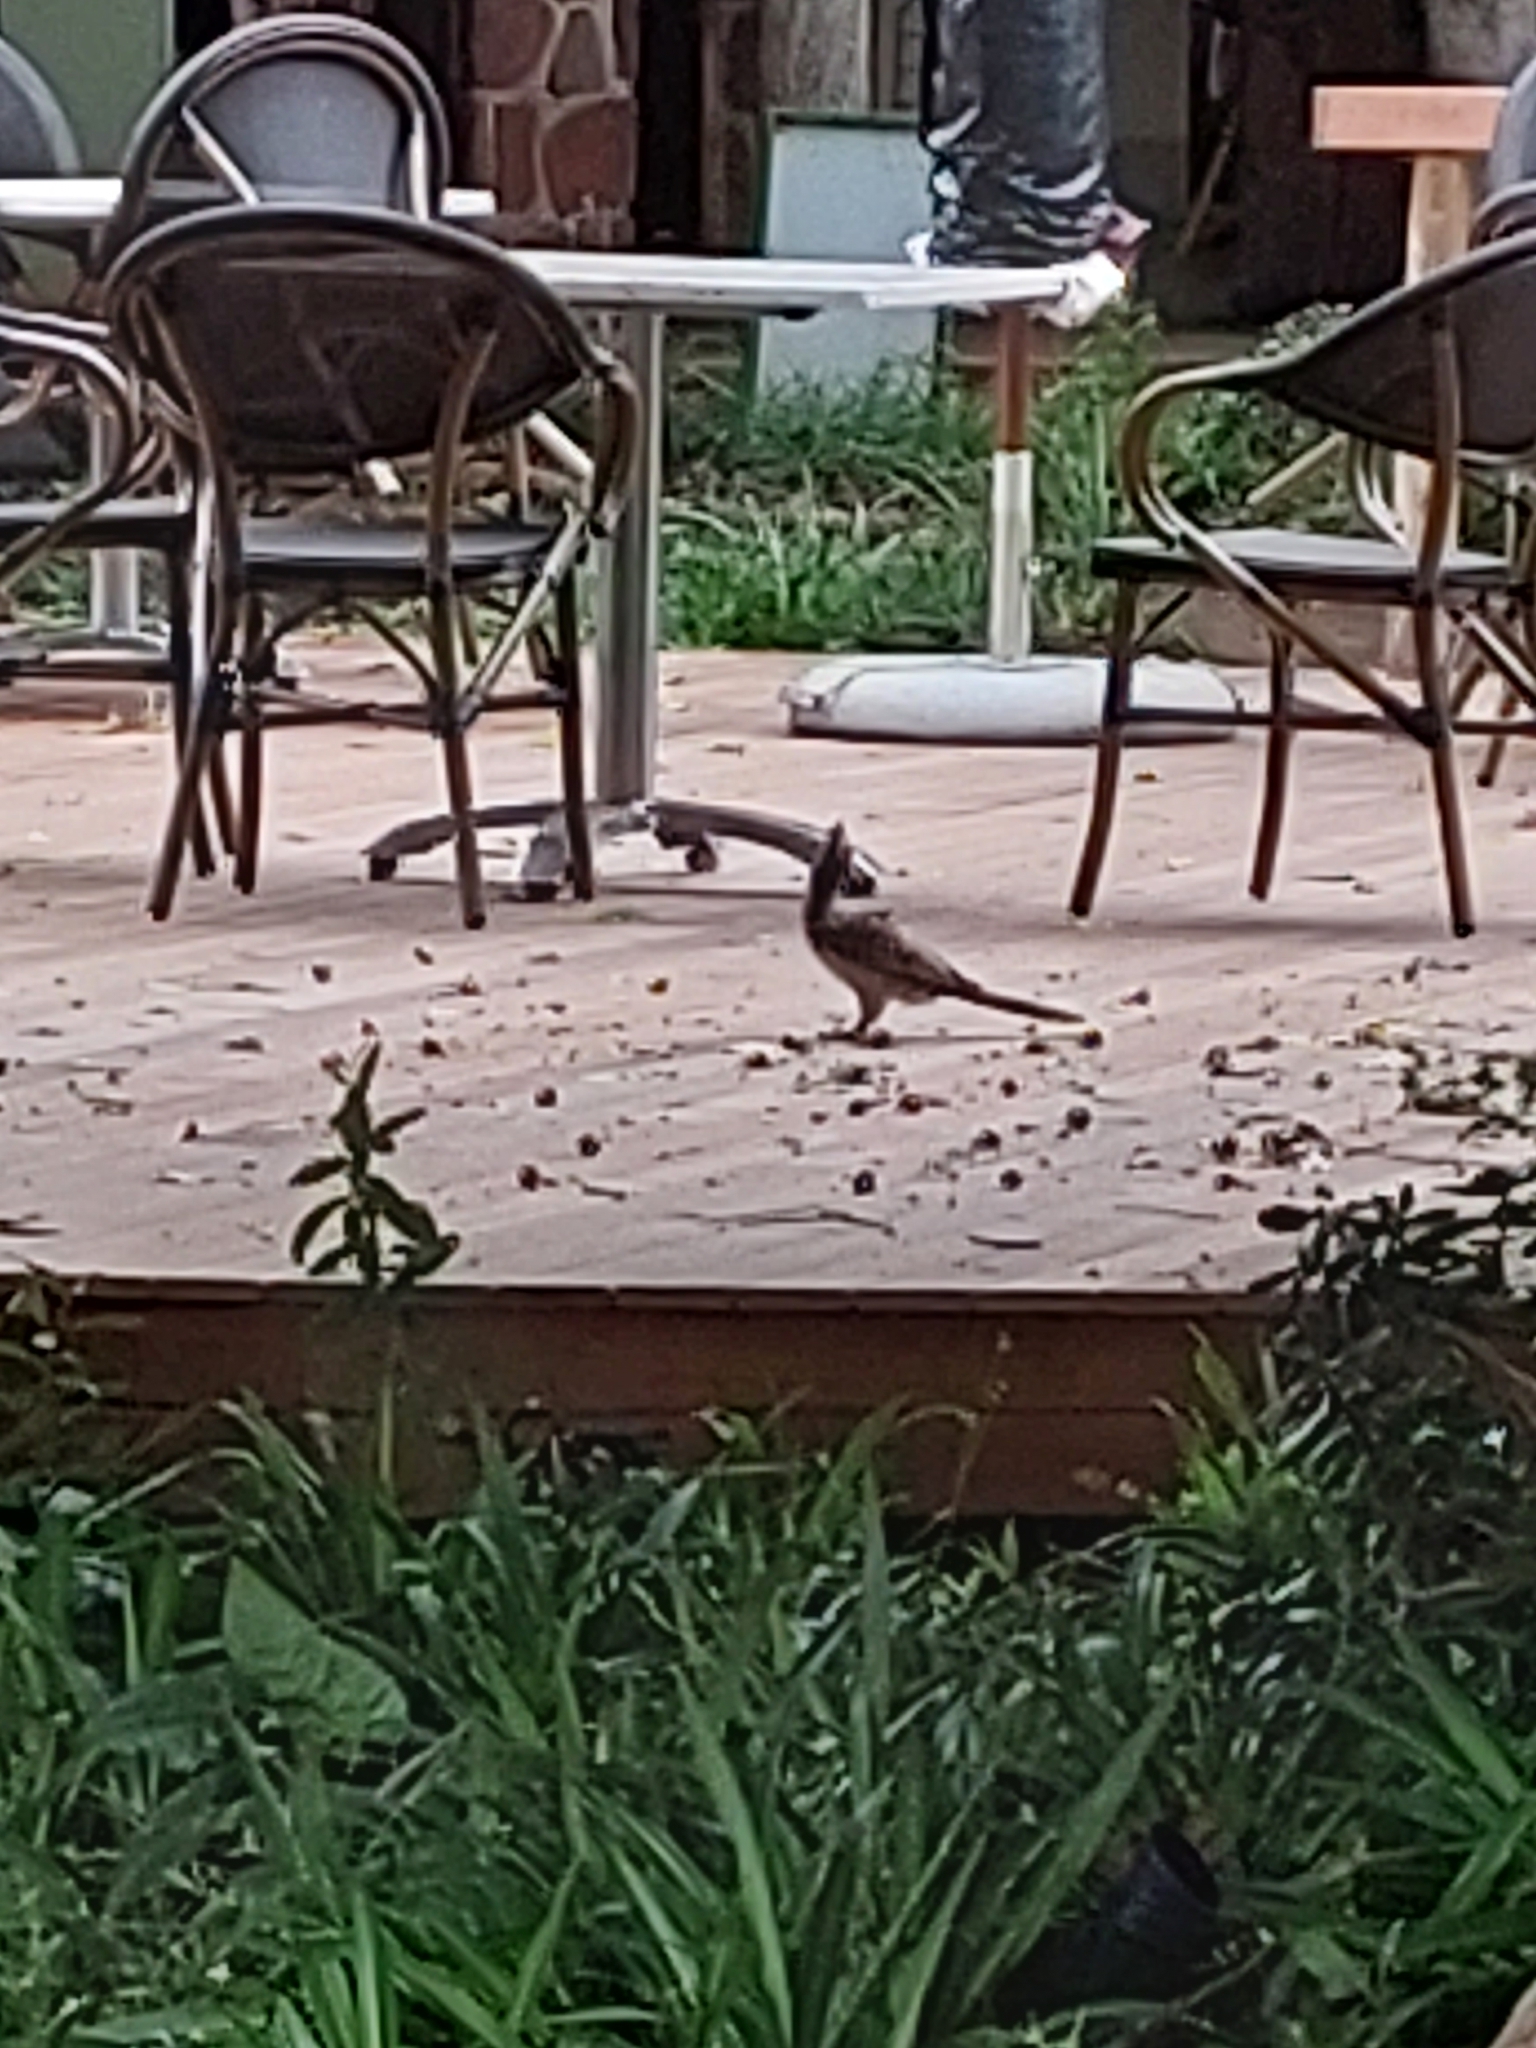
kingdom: Animalia
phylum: Chordata
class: Aves
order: Bucerotiformes
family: Bucerotidae
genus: Lophoceros
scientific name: Lophoceros nasutus
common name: African grey hornbill
